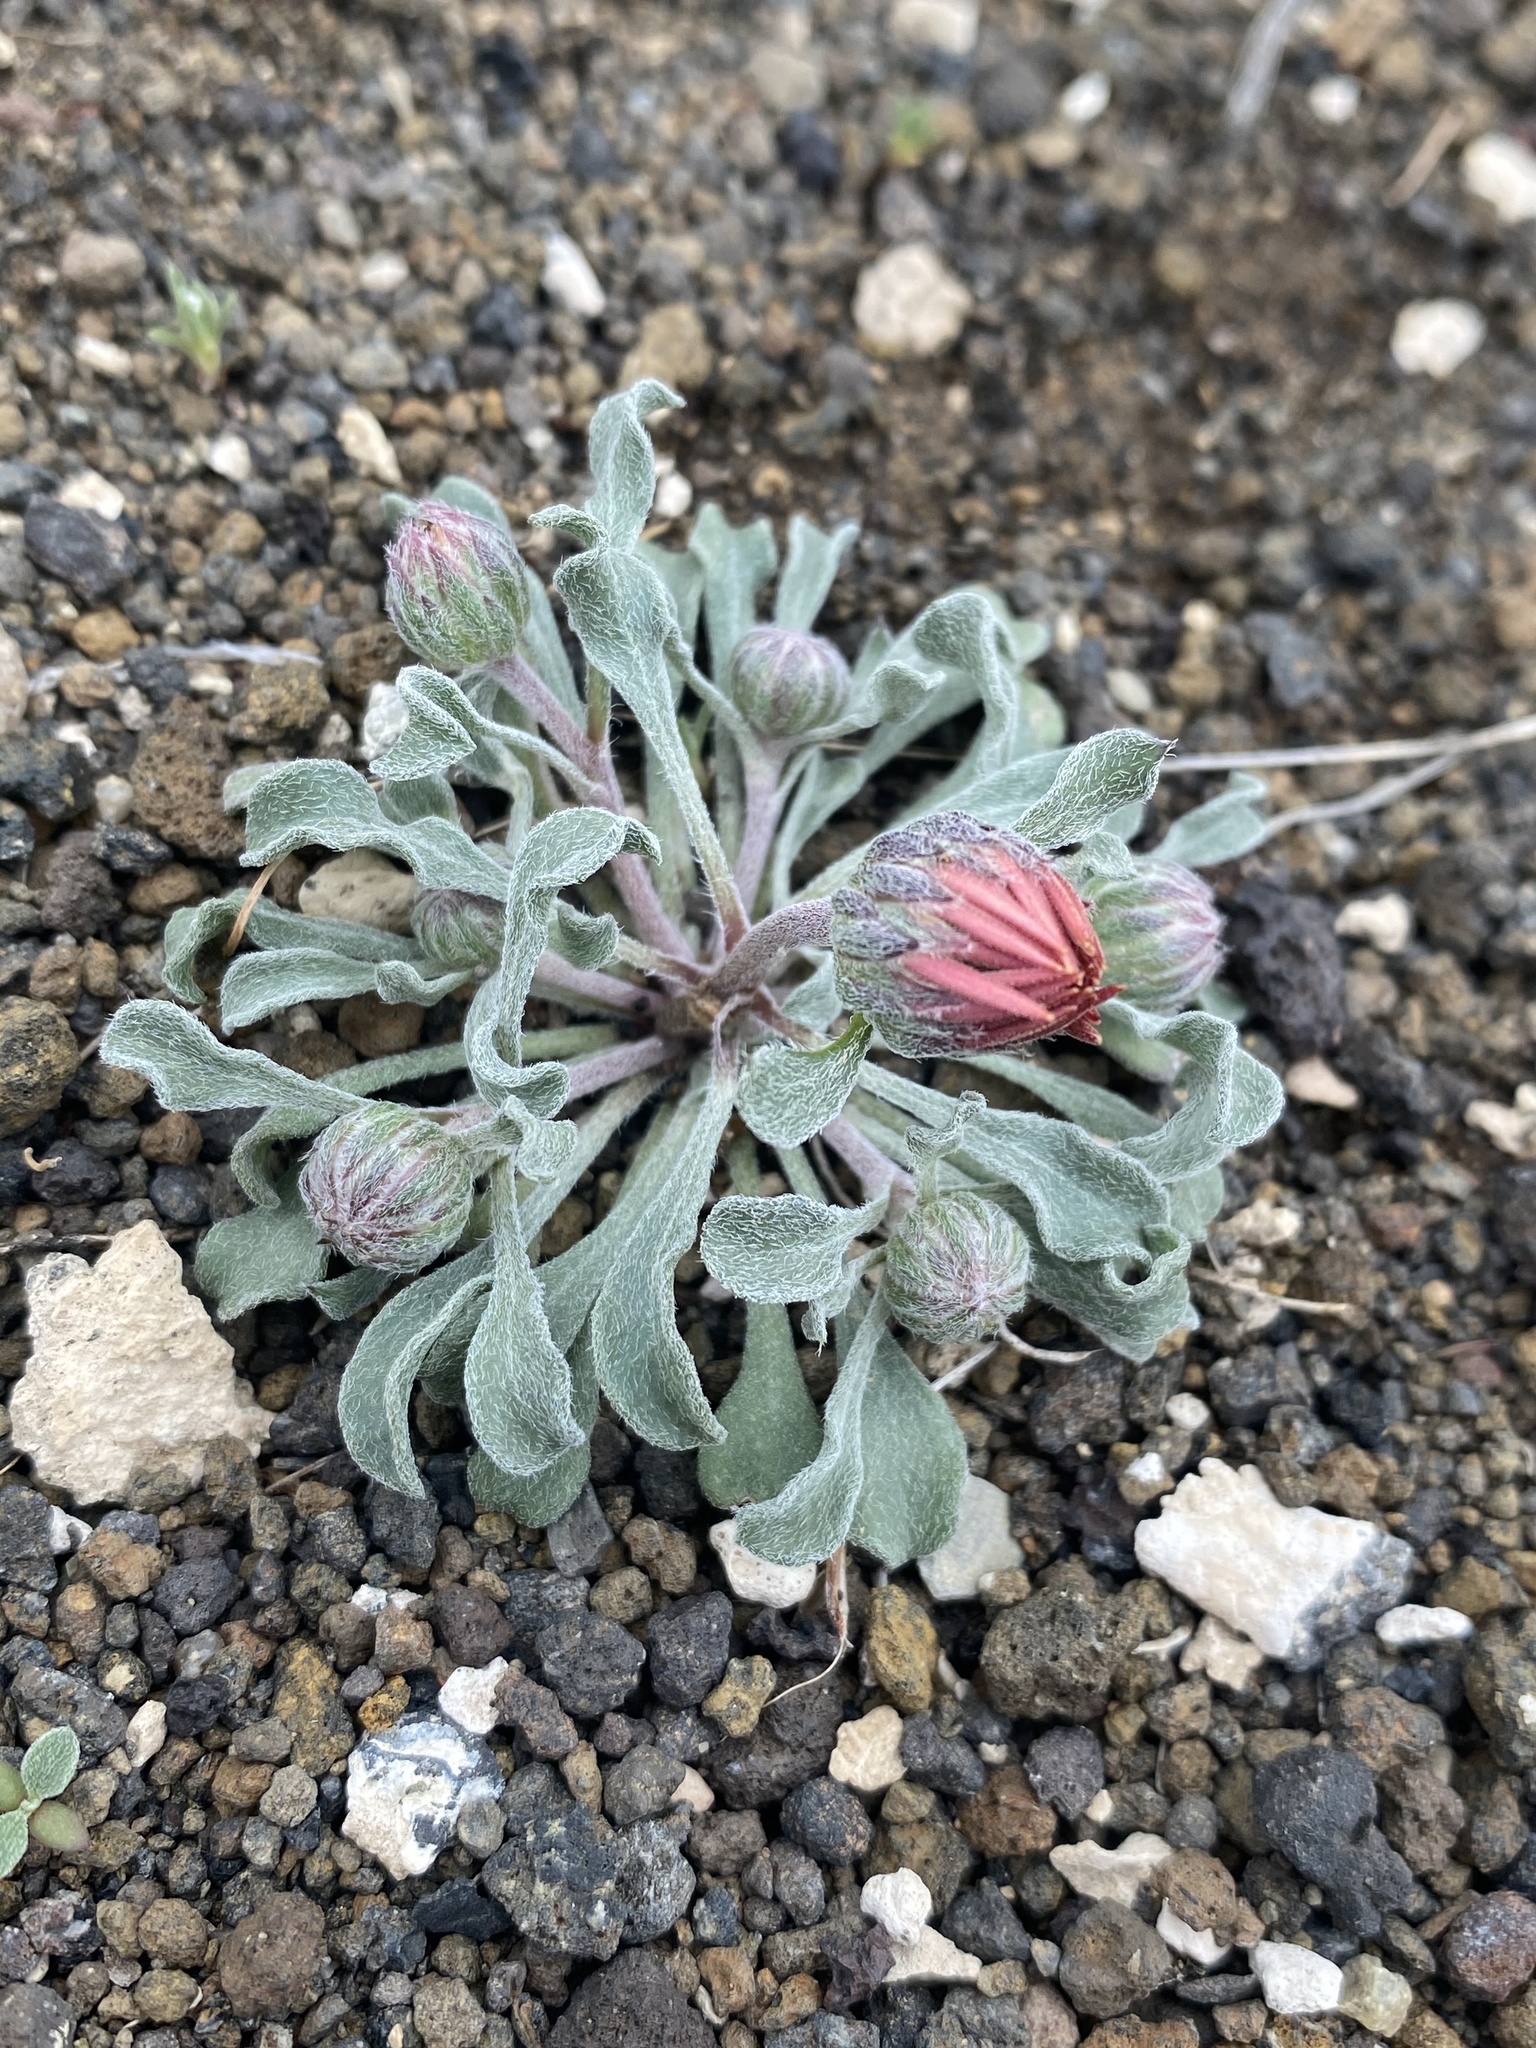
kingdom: Plantae
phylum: Tracheophyta
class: Magnoliopsida
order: Asterales
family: Asteraceae
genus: Townsendia
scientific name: Townsendia florifera
